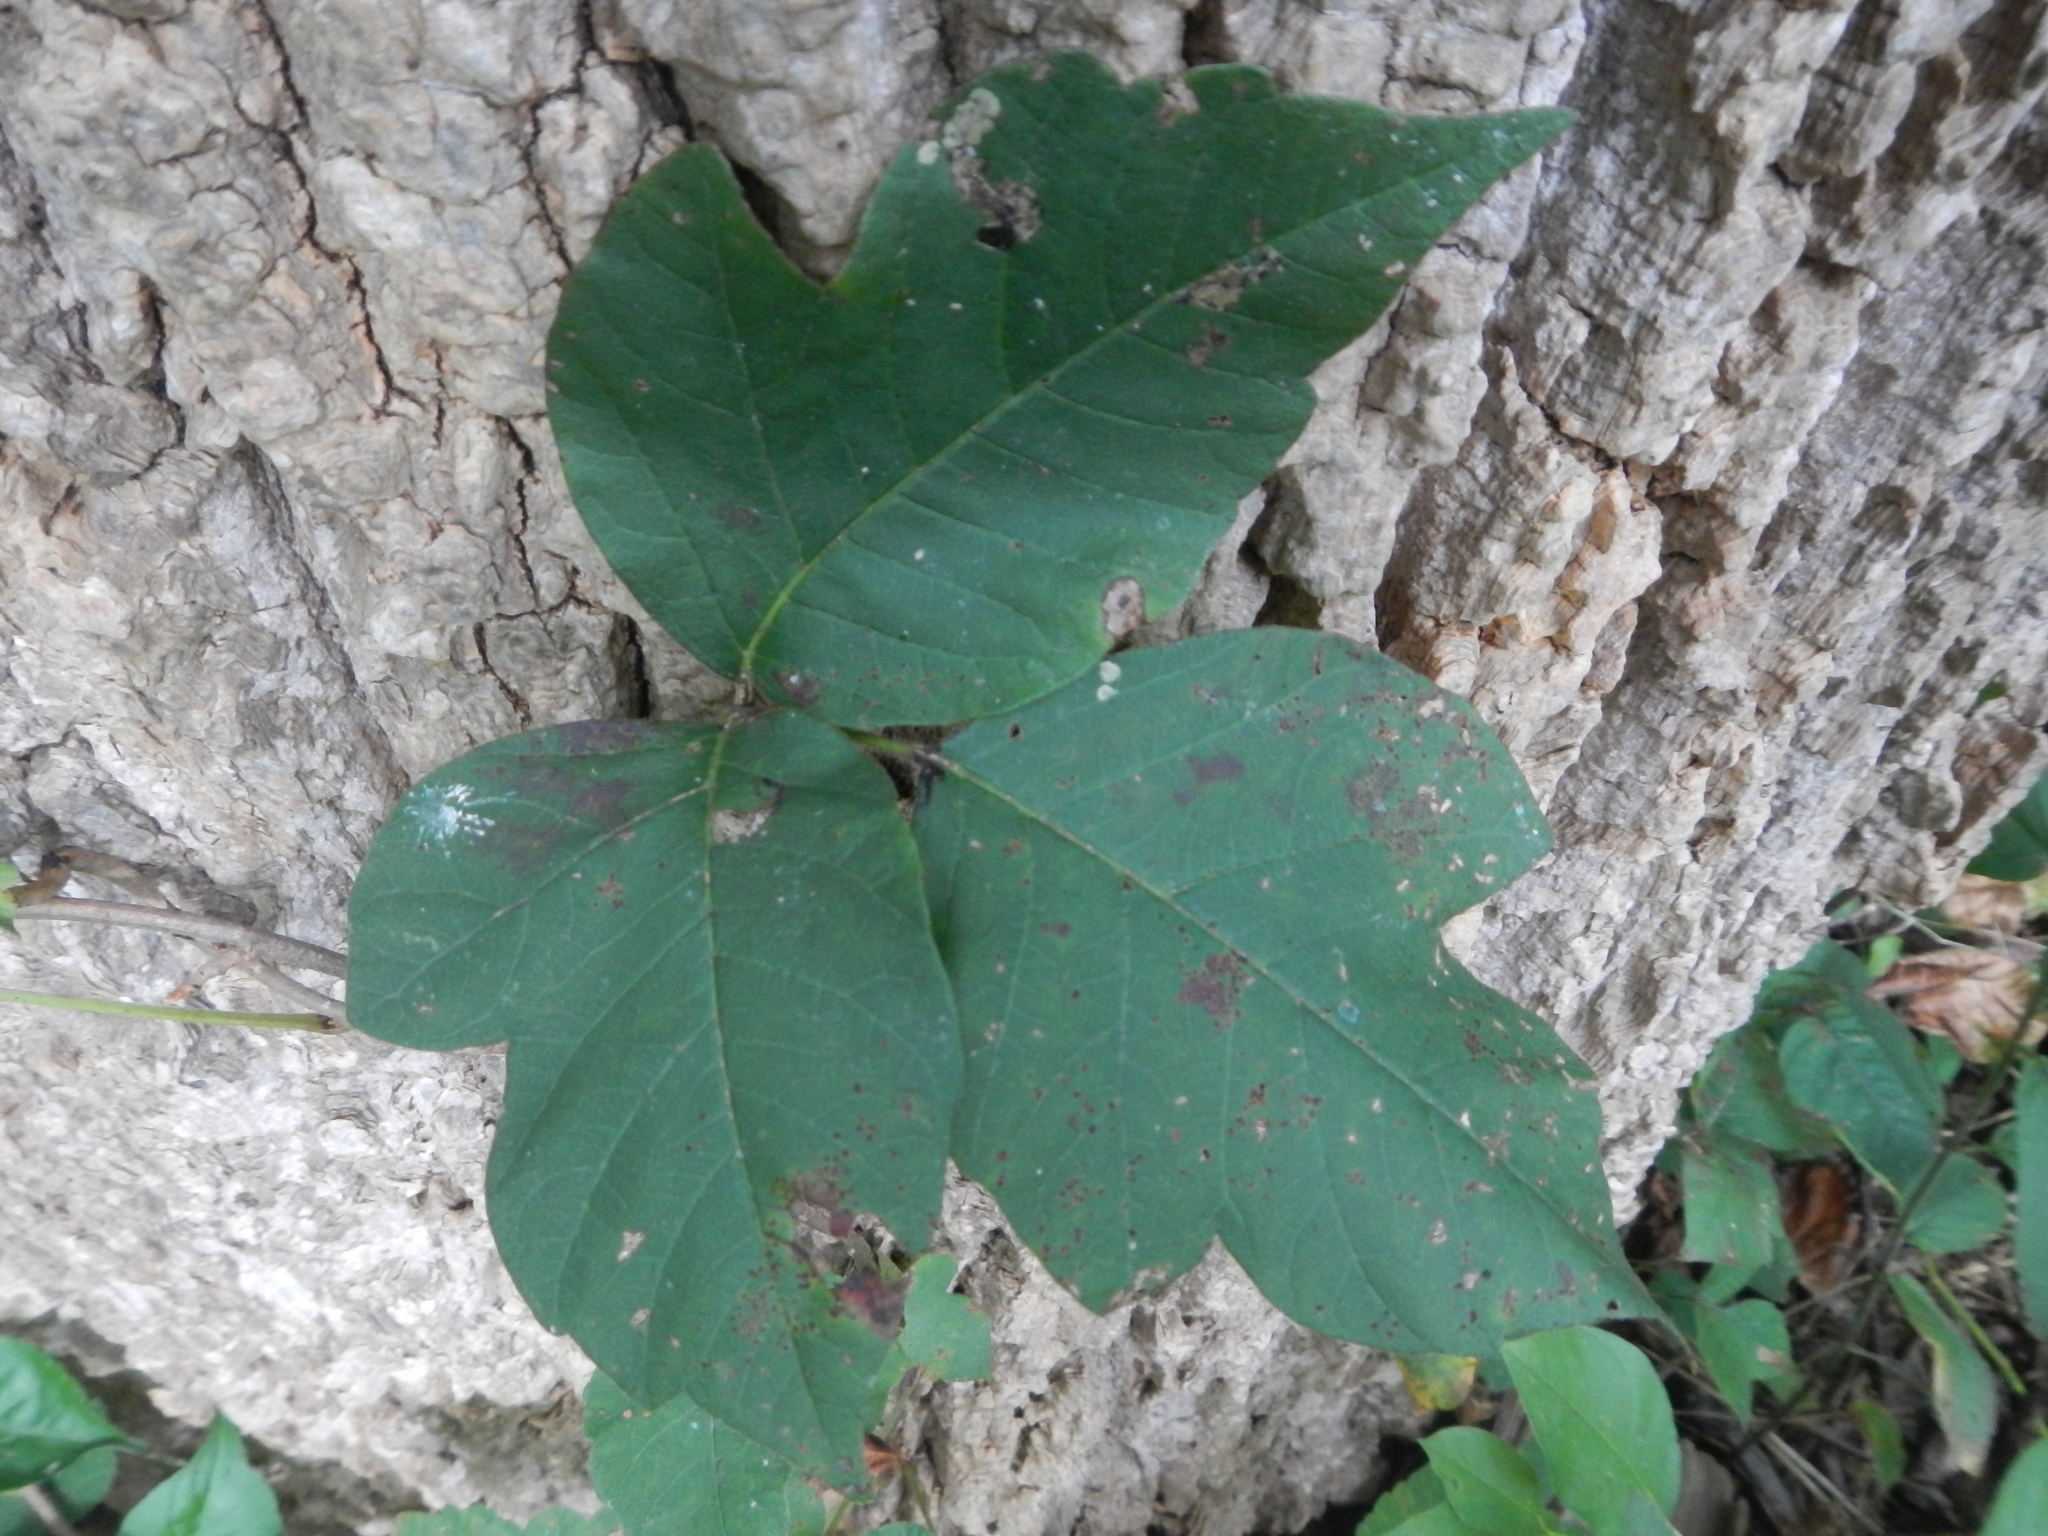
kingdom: Plantae
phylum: Tracheophyta
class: Magnoliopsida
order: Sapindales
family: Anacardiaceae
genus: Toxicodendron
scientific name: Toxicodendron radicans
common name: Poison ivy
